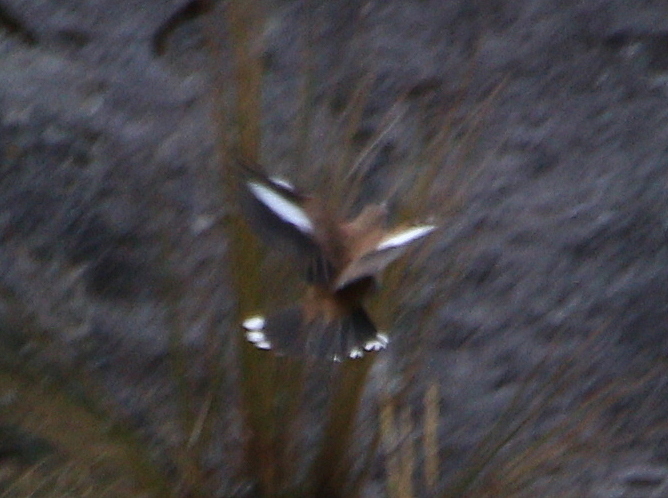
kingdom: Animalia
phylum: Chordata
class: Aves
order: Passeriformes
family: Furnariidae
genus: Cinclodes
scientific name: Cinclodes atacamensis
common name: White-winged cinclodes
